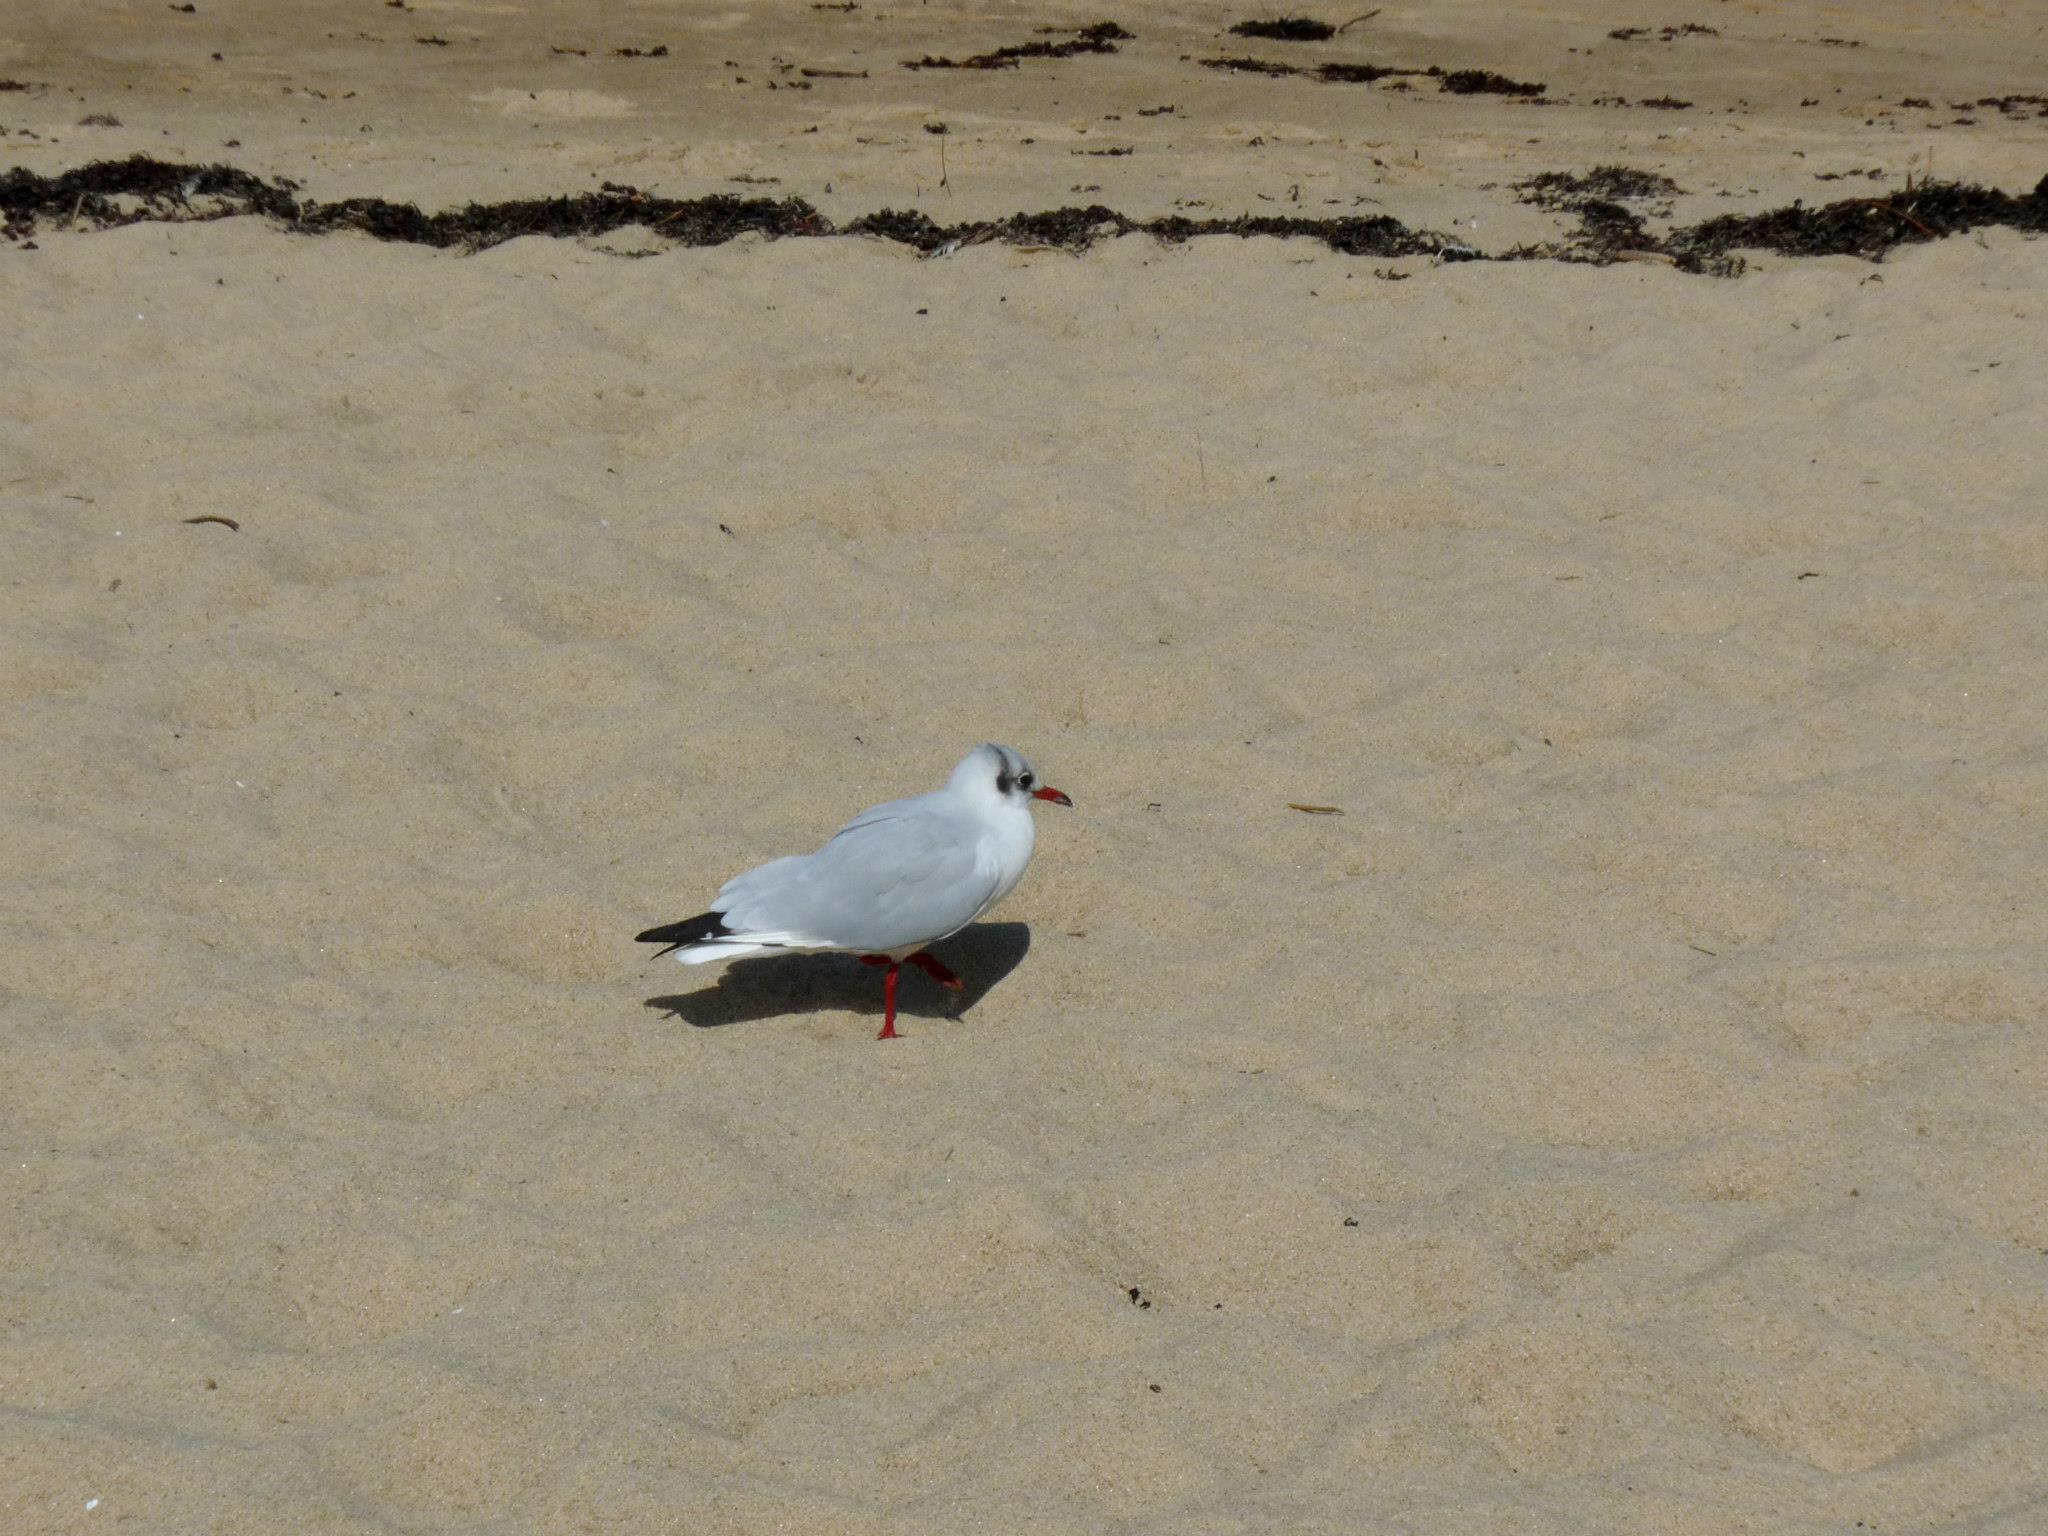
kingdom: Animalia
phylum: Chordata
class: Aves
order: Charadriiformes
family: Laridae
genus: Chroicocephalus
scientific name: Chroicocephalus ridibundus
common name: Black-headed gull
